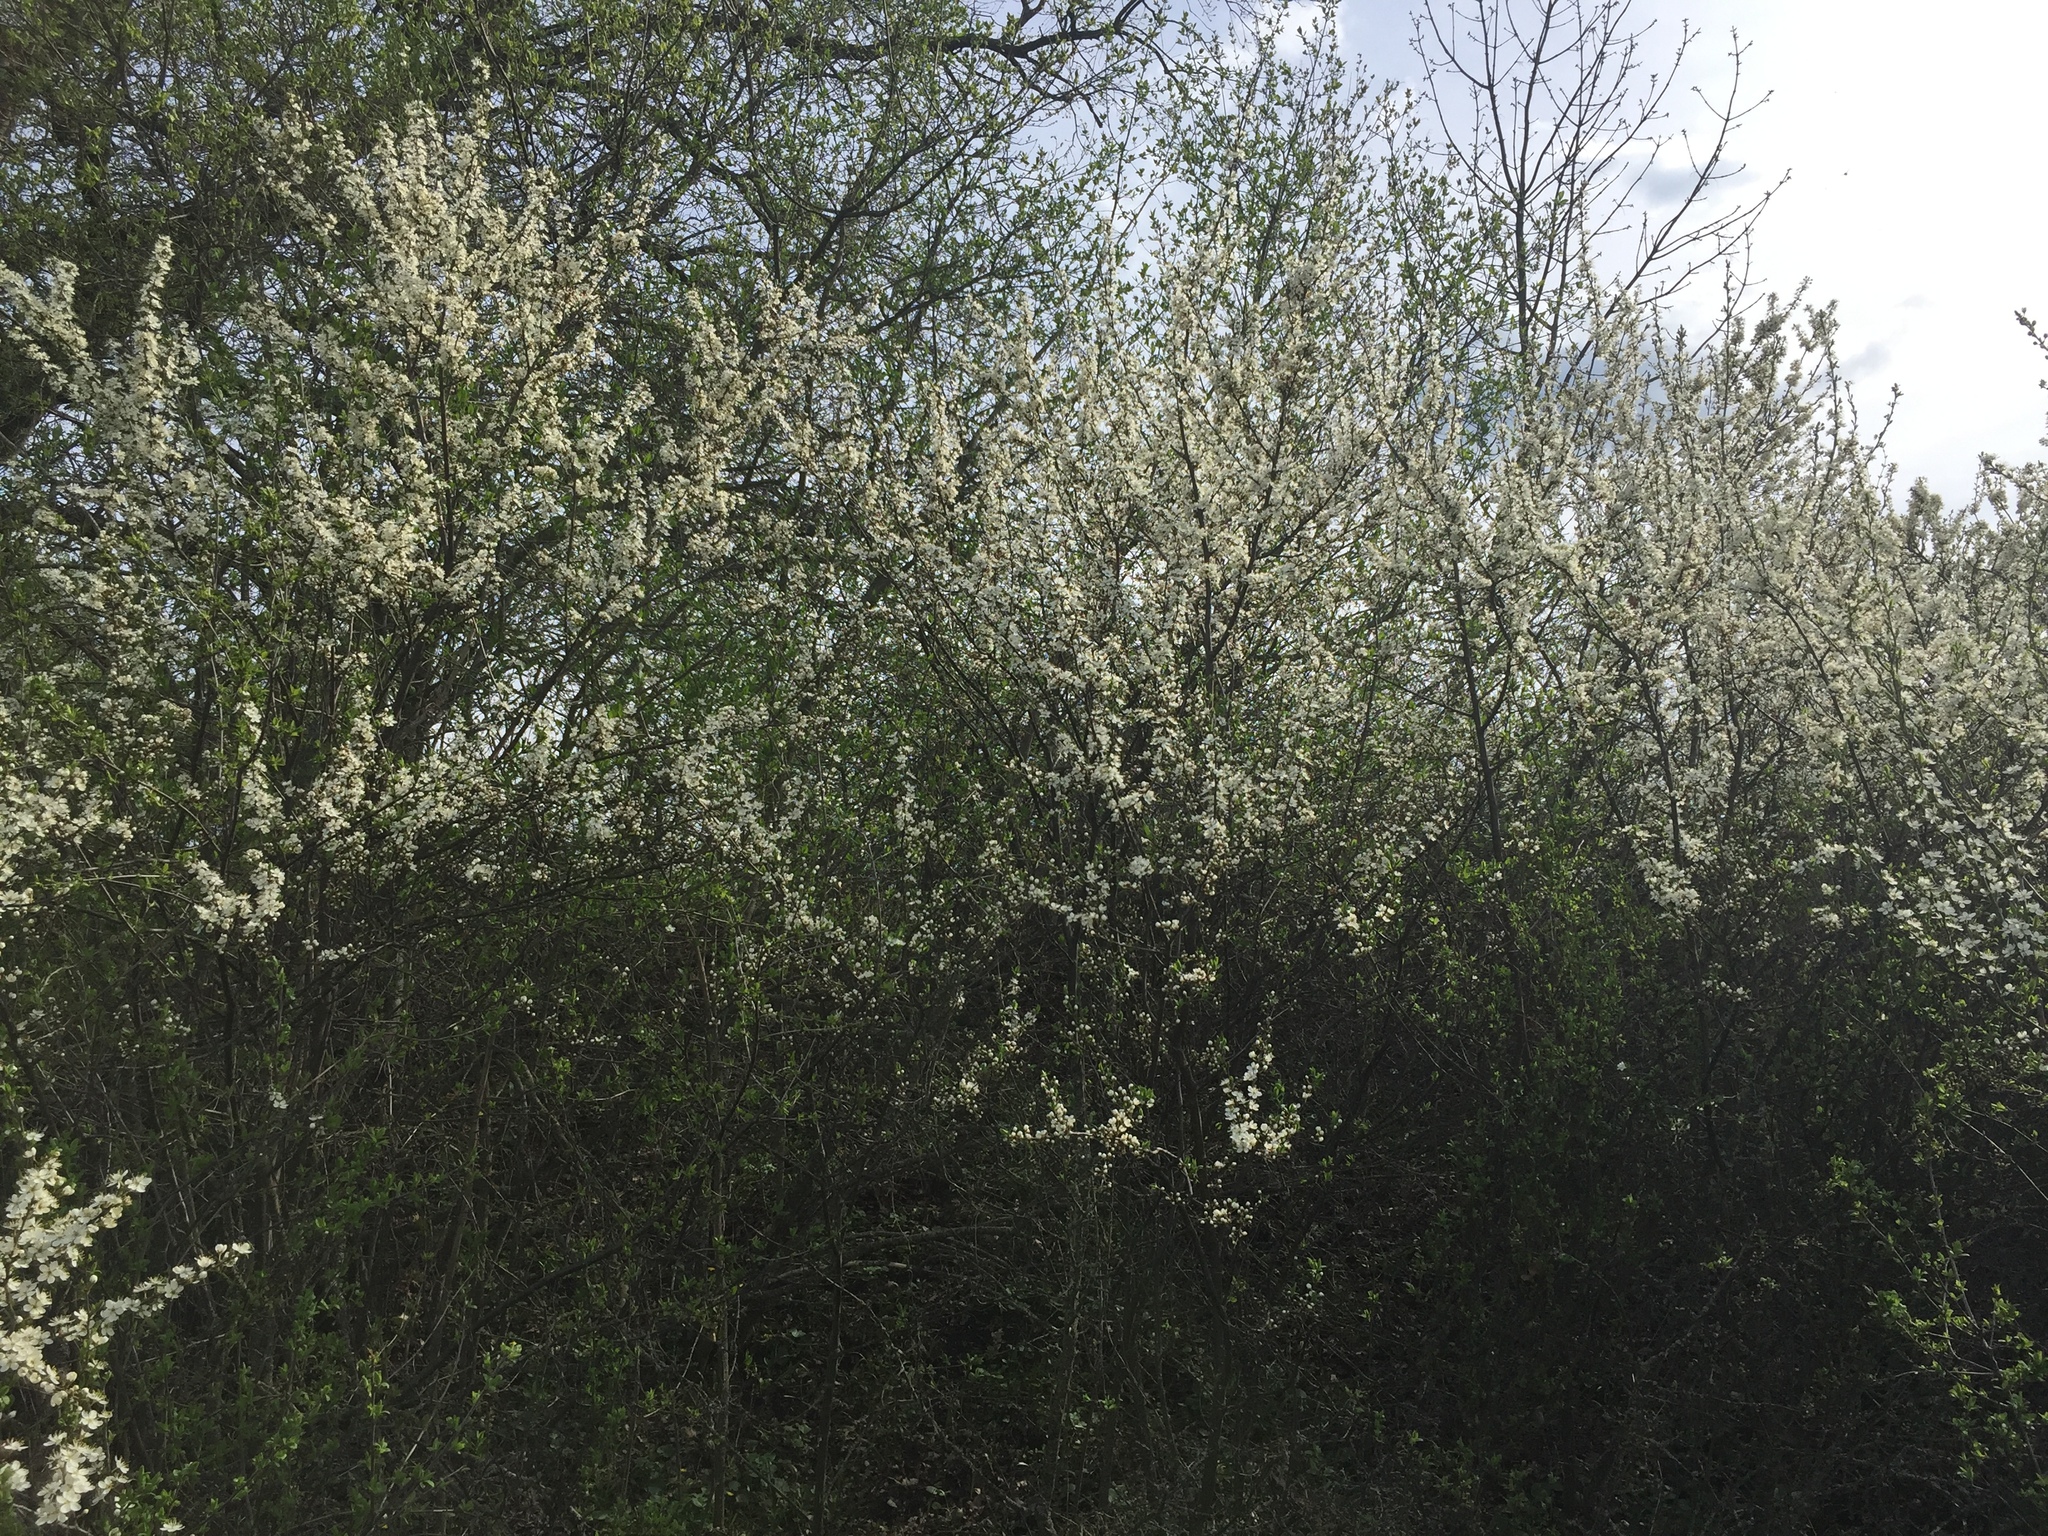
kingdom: Plantae
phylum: Tracheophyta
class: Magnoliopsida
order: Rosales
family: Rosaceae
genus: Prunus
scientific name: Prunus spinosa
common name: Blackthorn
